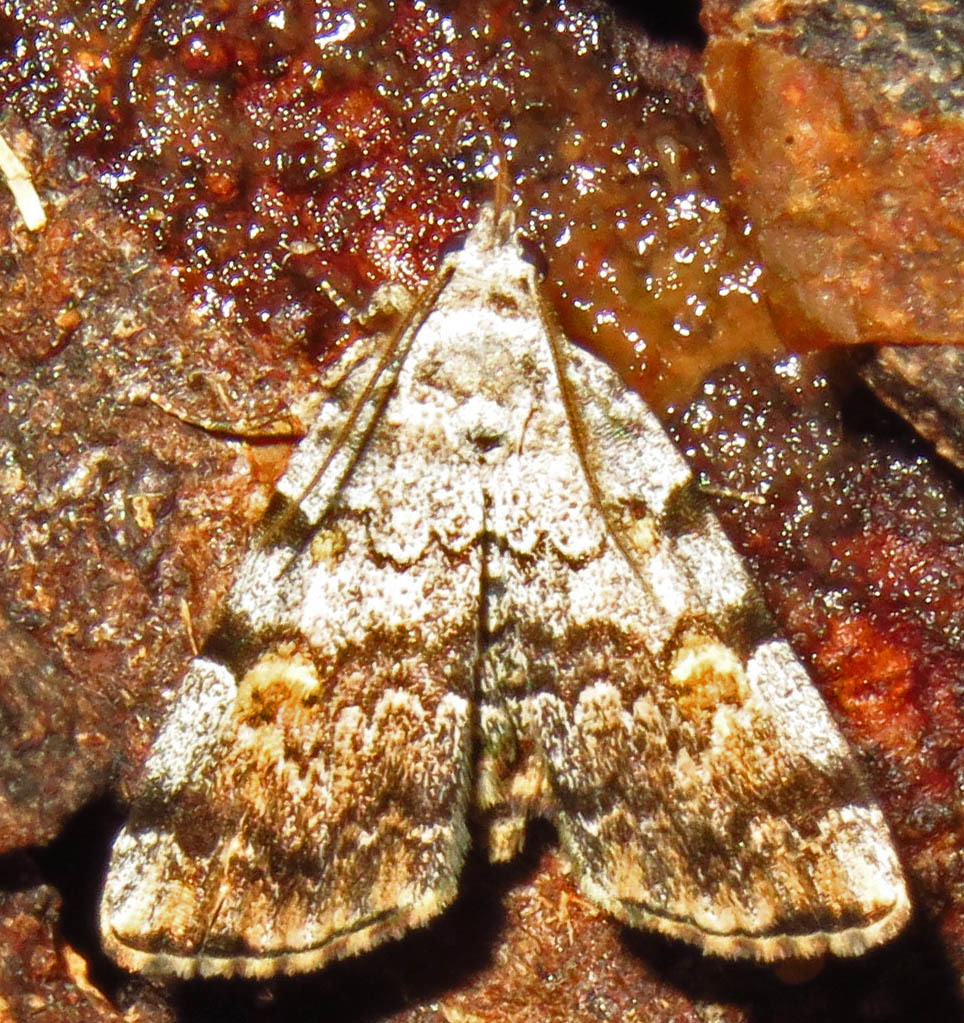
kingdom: Animalia
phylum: Arthropoda
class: Insecta
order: Lepidoptera
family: Erebidae
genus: Idia
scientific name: Idia americalis
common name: American idia moth
